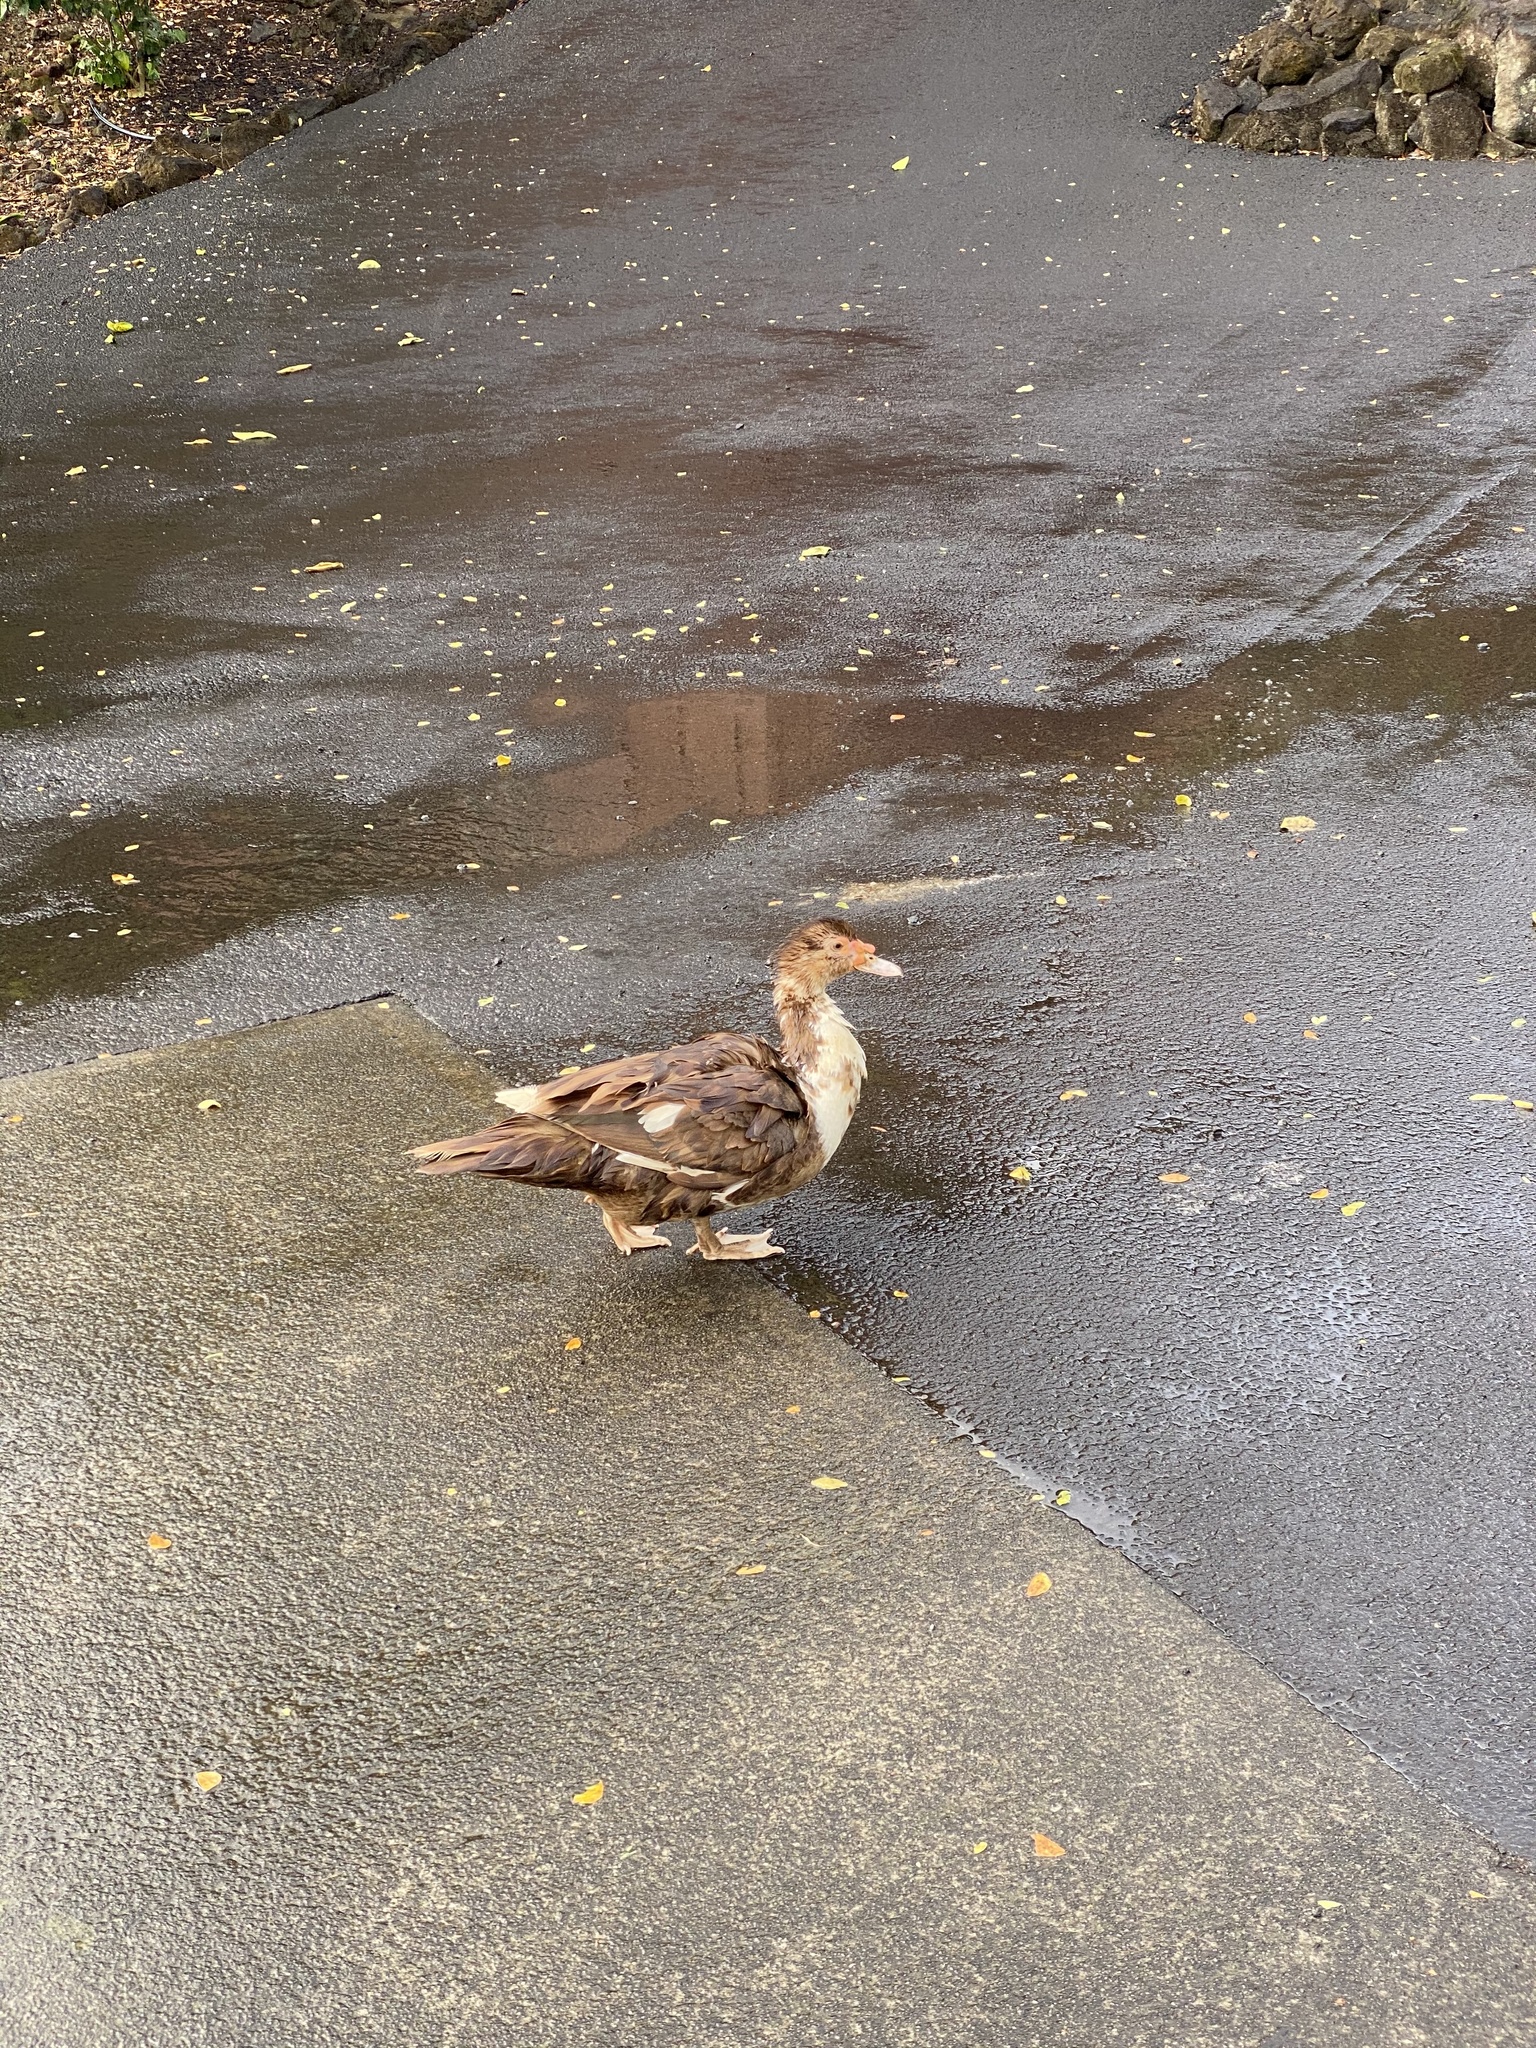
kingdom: Animalia
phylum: Chordata
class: Aves
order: Anseriformes
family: Anatidae
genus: Cairina
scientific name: Cairina moschata
